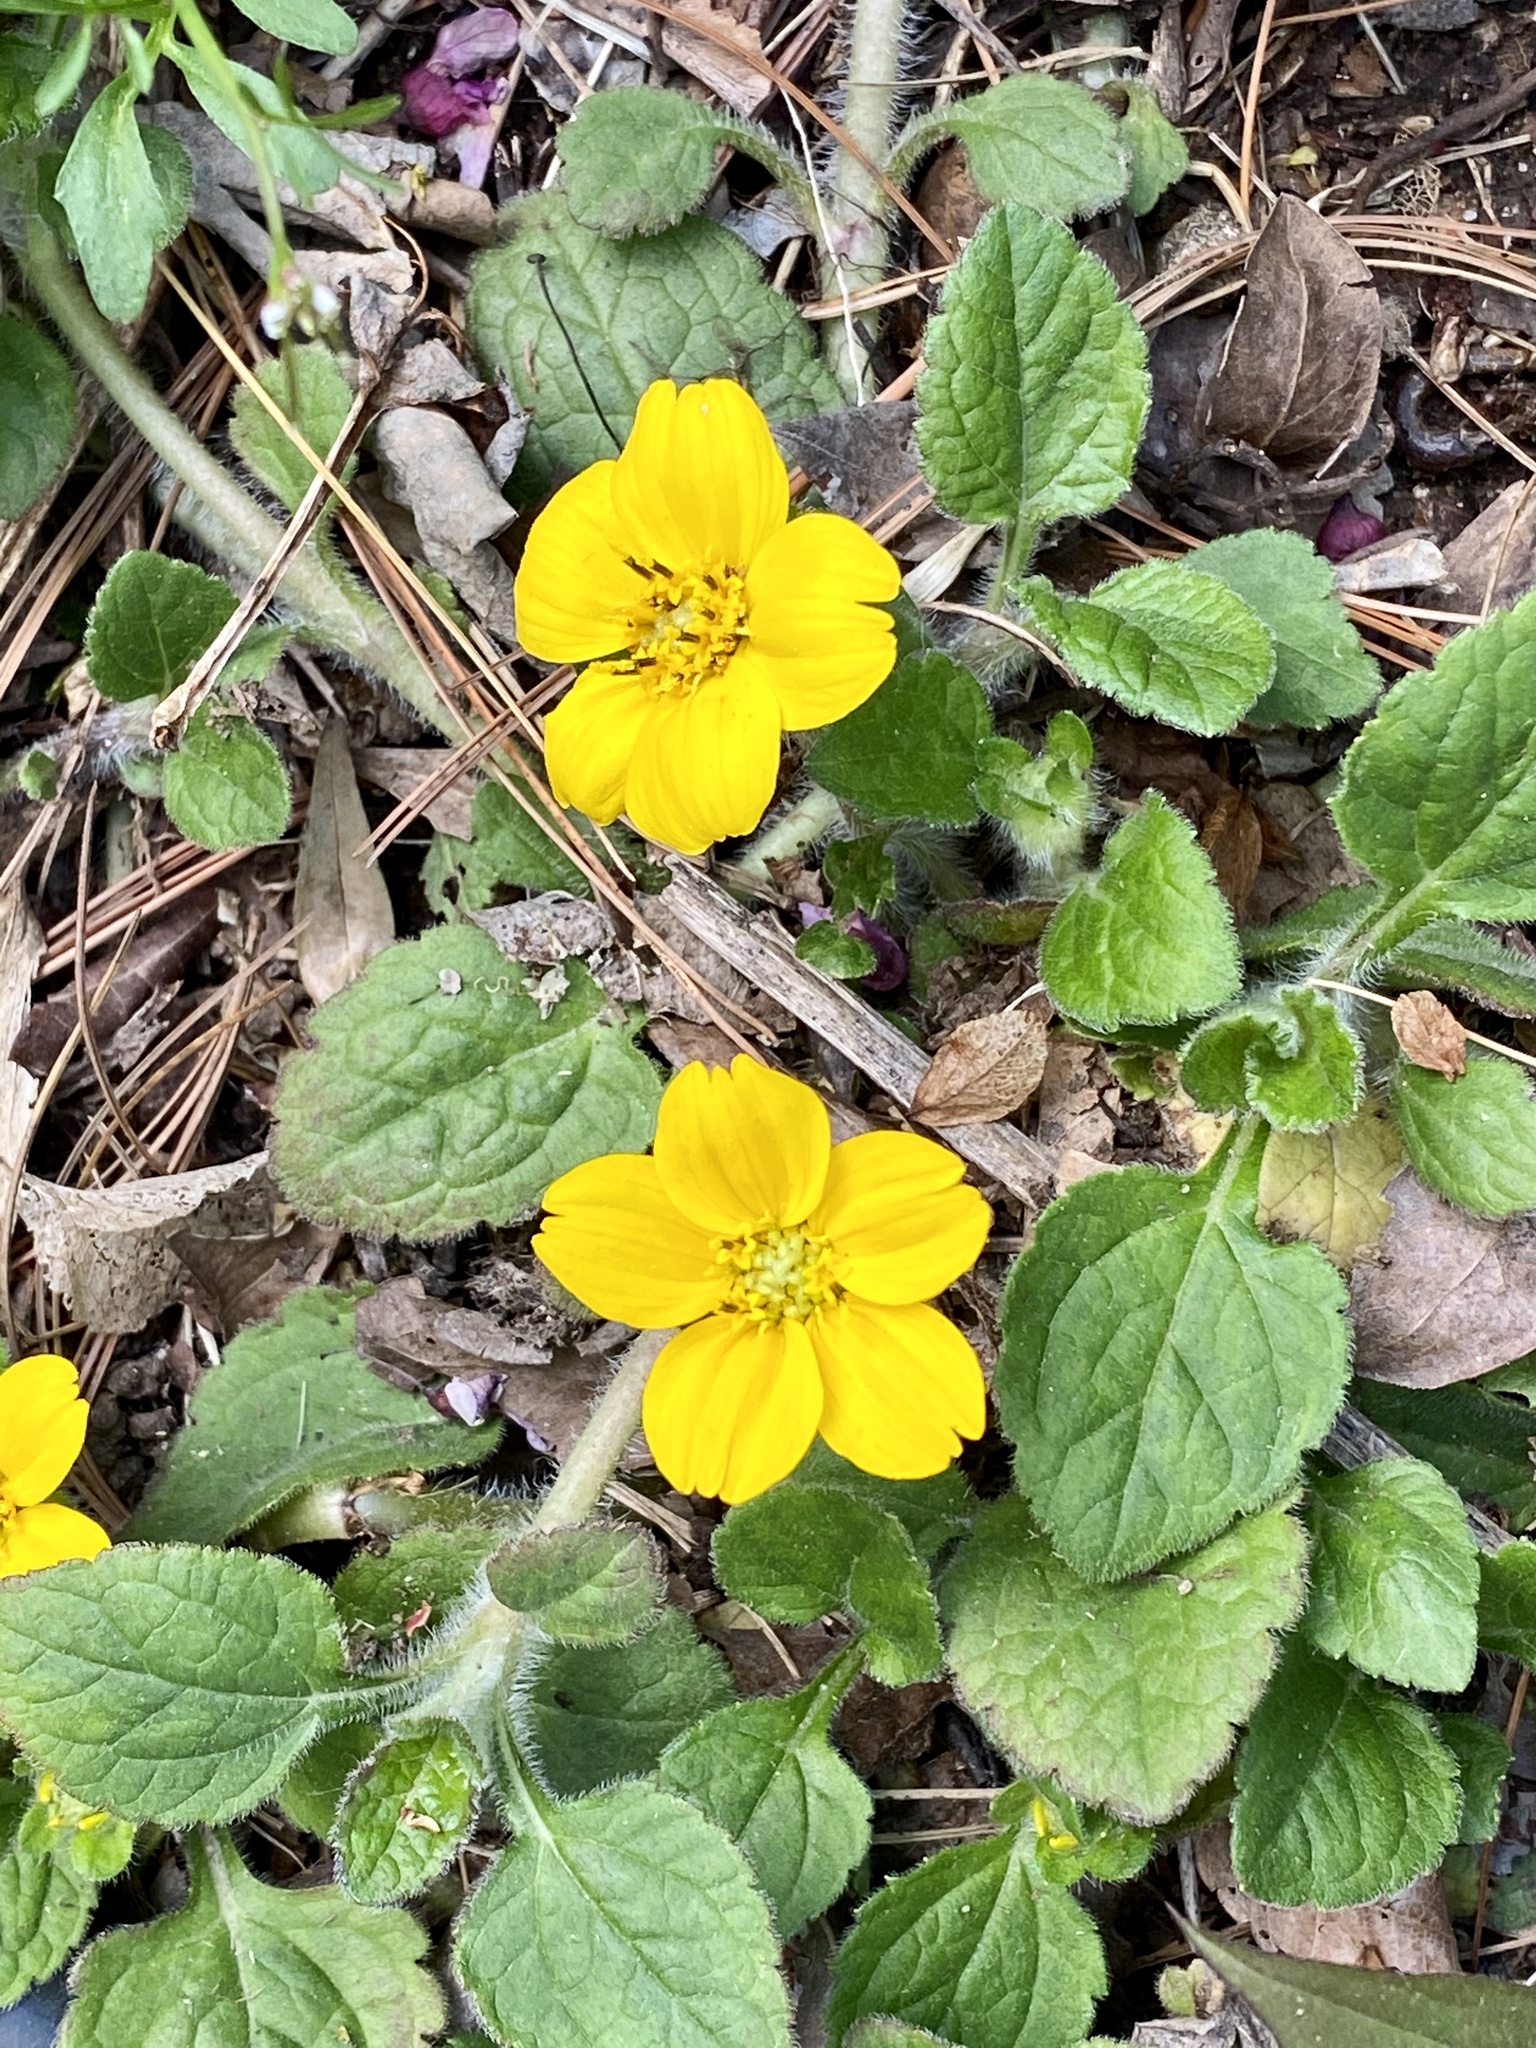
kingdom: Plantae
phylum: Tracheophyta
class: Magnoliopsida
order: Asterales
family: Asteraceae
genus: Chrysogonum
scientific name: Chrysogonum virginianum
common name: Golden-knee
